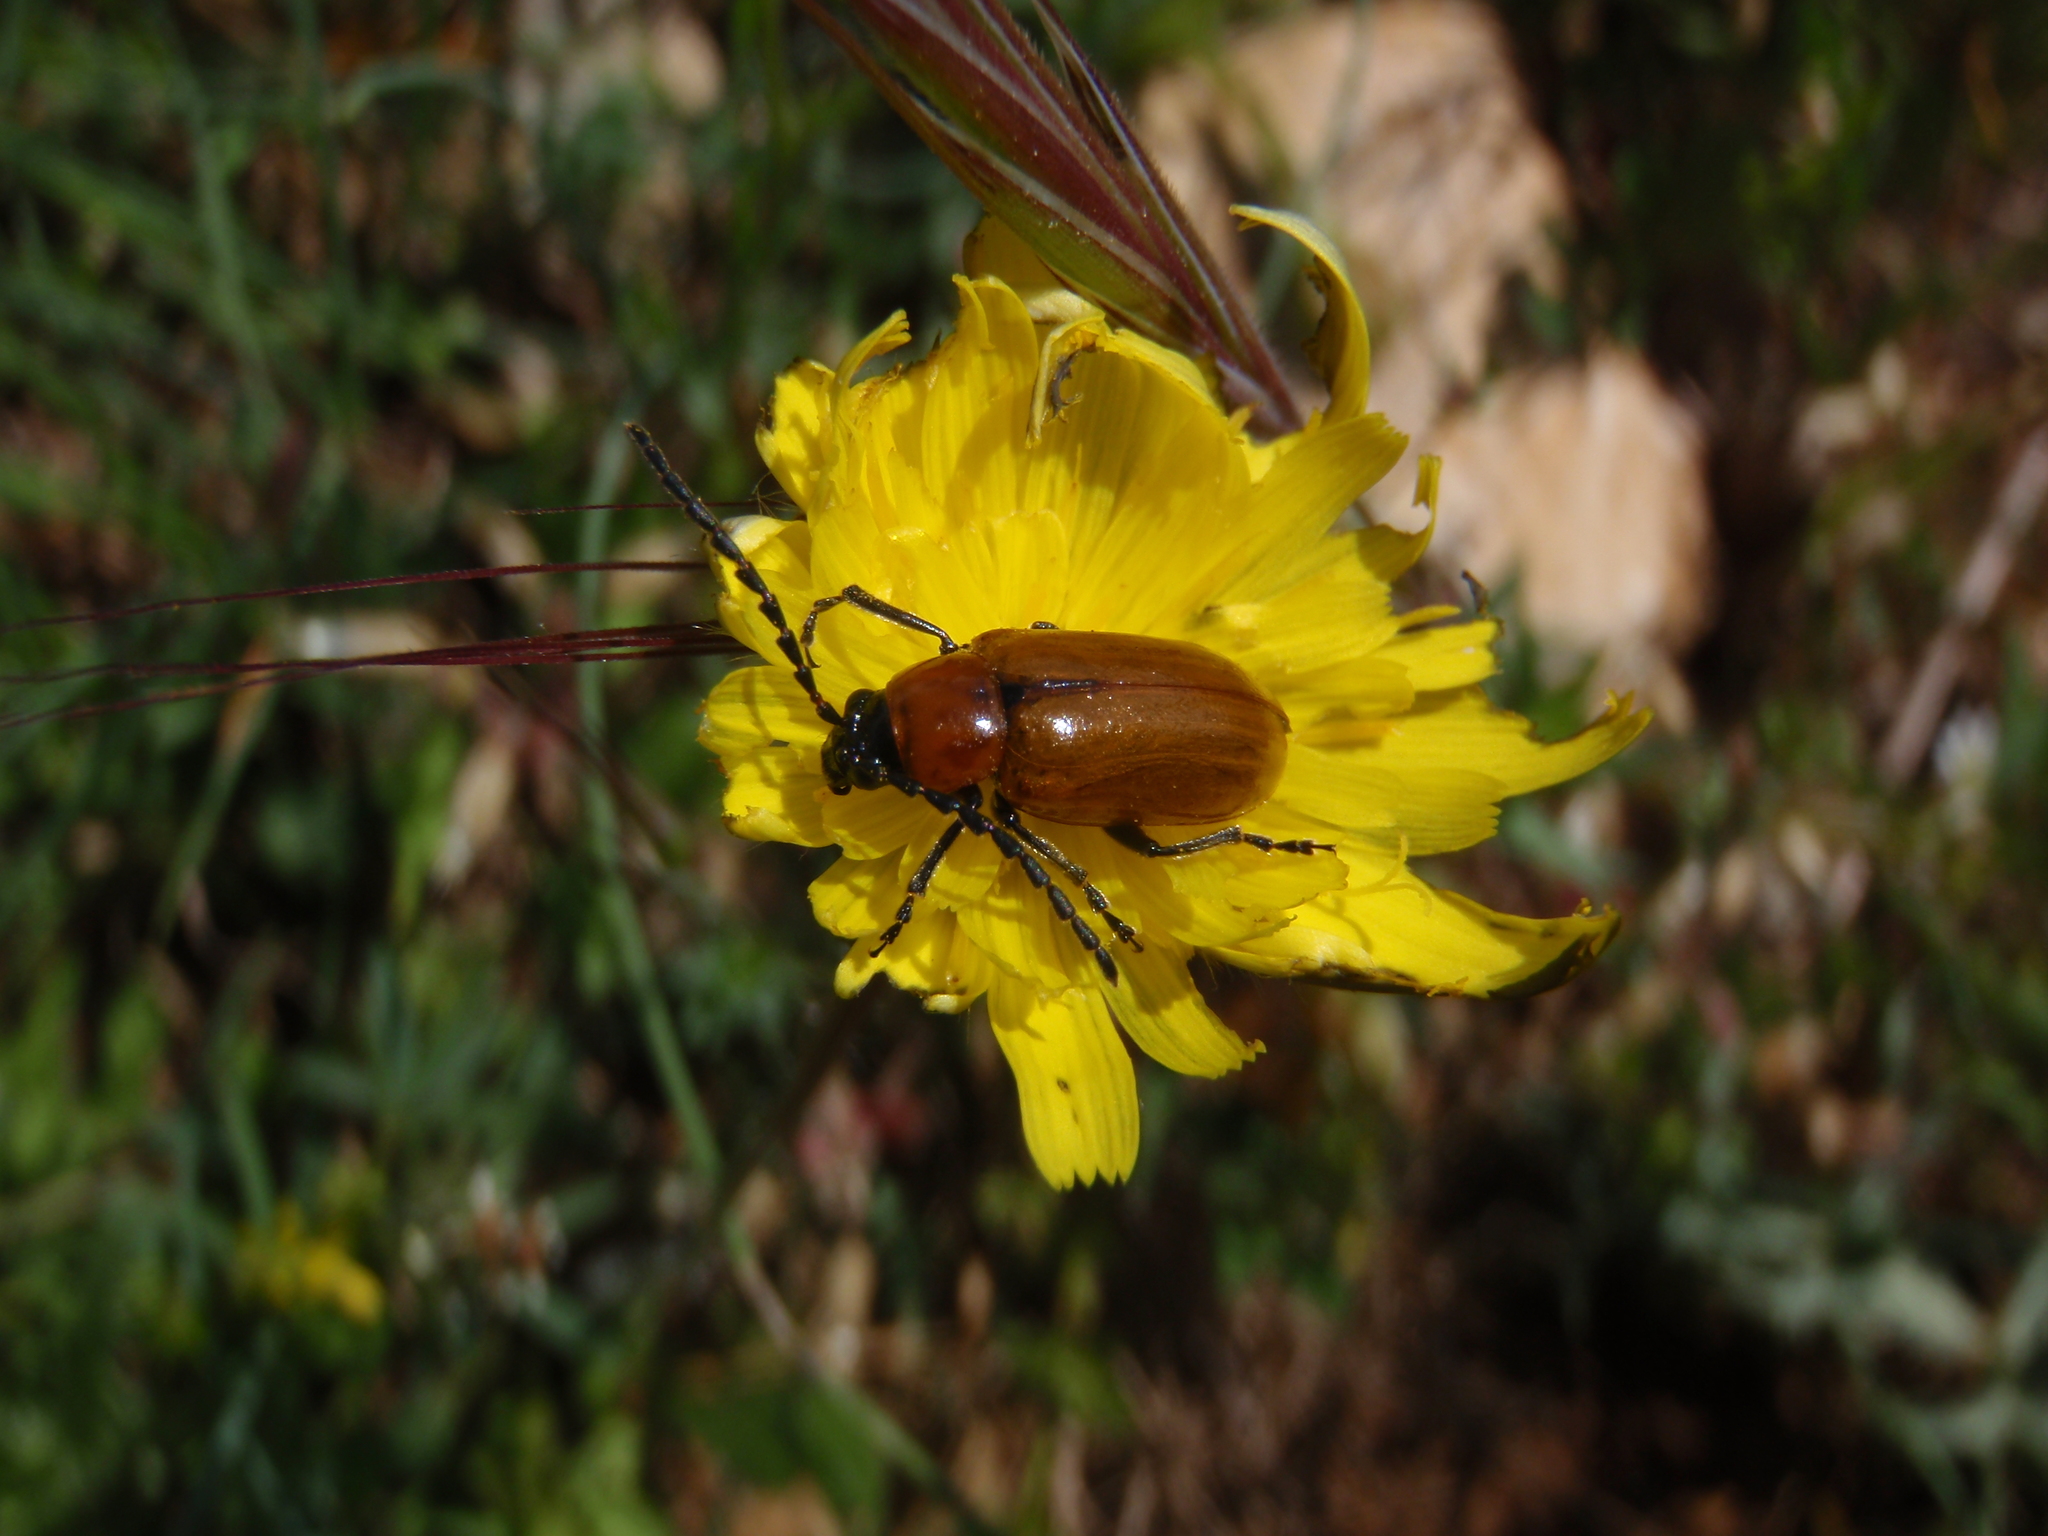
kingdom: Animalia
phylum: Arthropoda
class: Insecta
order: Coleoptera
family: Chrysomelidae
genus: Exosoma
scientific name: Exosoma lusitanicum
